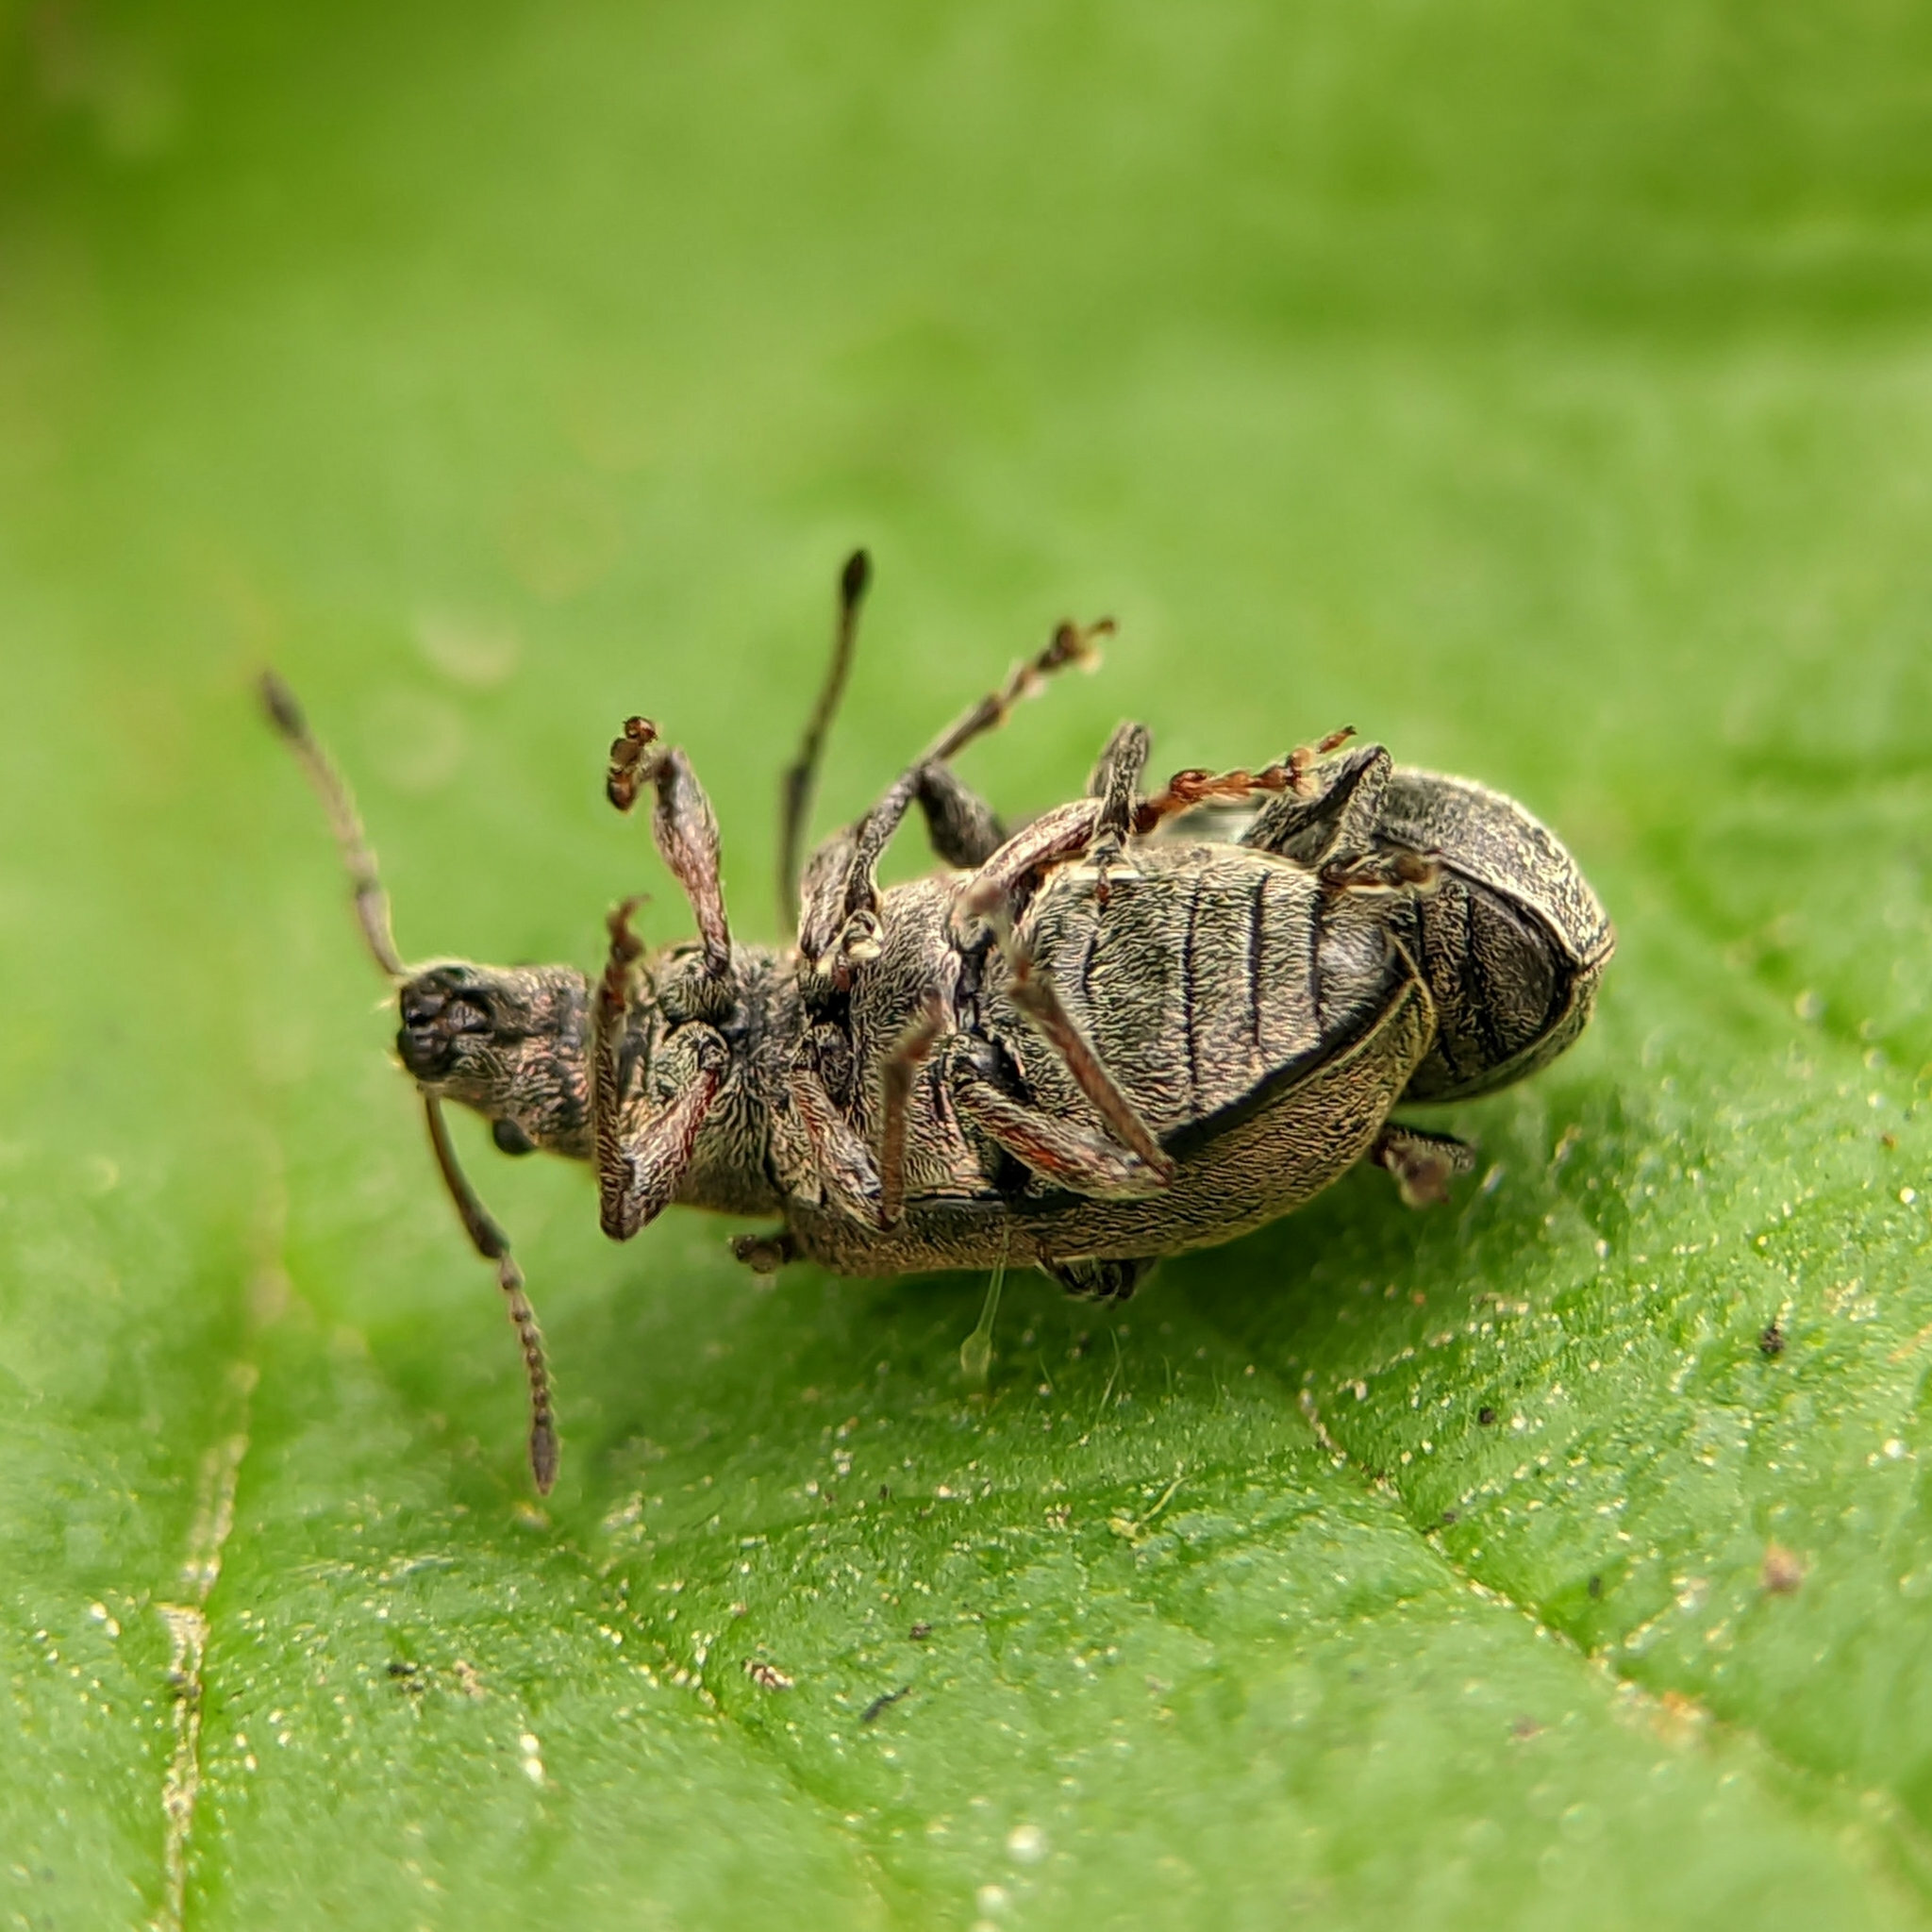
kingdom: Animalia
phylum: Arthropoda
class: Insecta
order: Coleoptera
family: Curculionidae
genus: Phyllobius
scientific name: Phyllobius pyri
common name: Common leaf weevil
